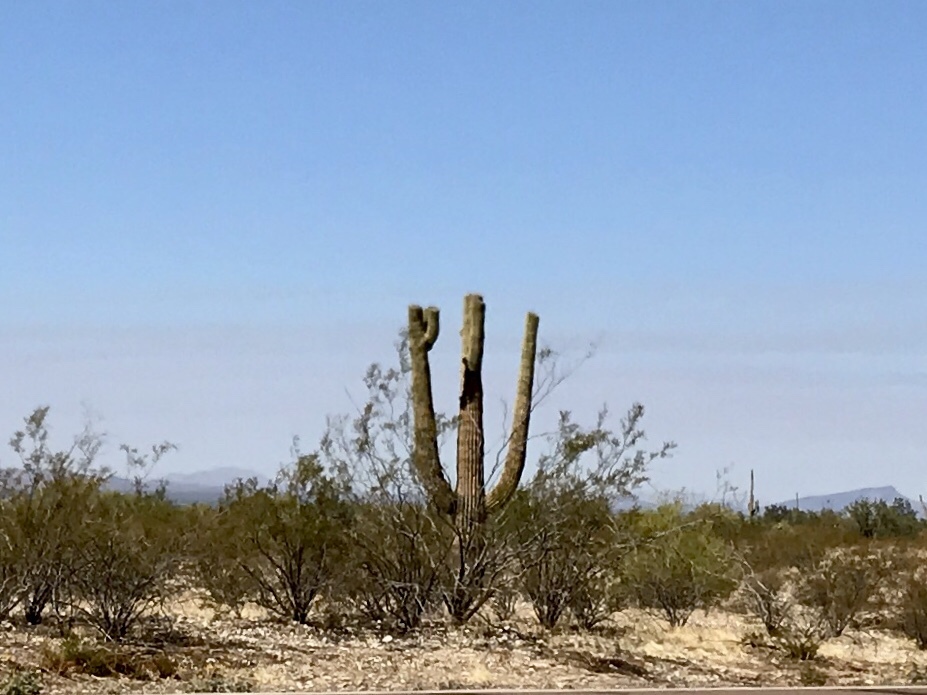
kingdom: Plantae
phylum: Tracheophyta
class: Magnoliopsida
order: Caryophyllales
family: Cactaceae
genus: Carnegiea
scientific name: Carnegiea gigantea
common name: Saguaro
